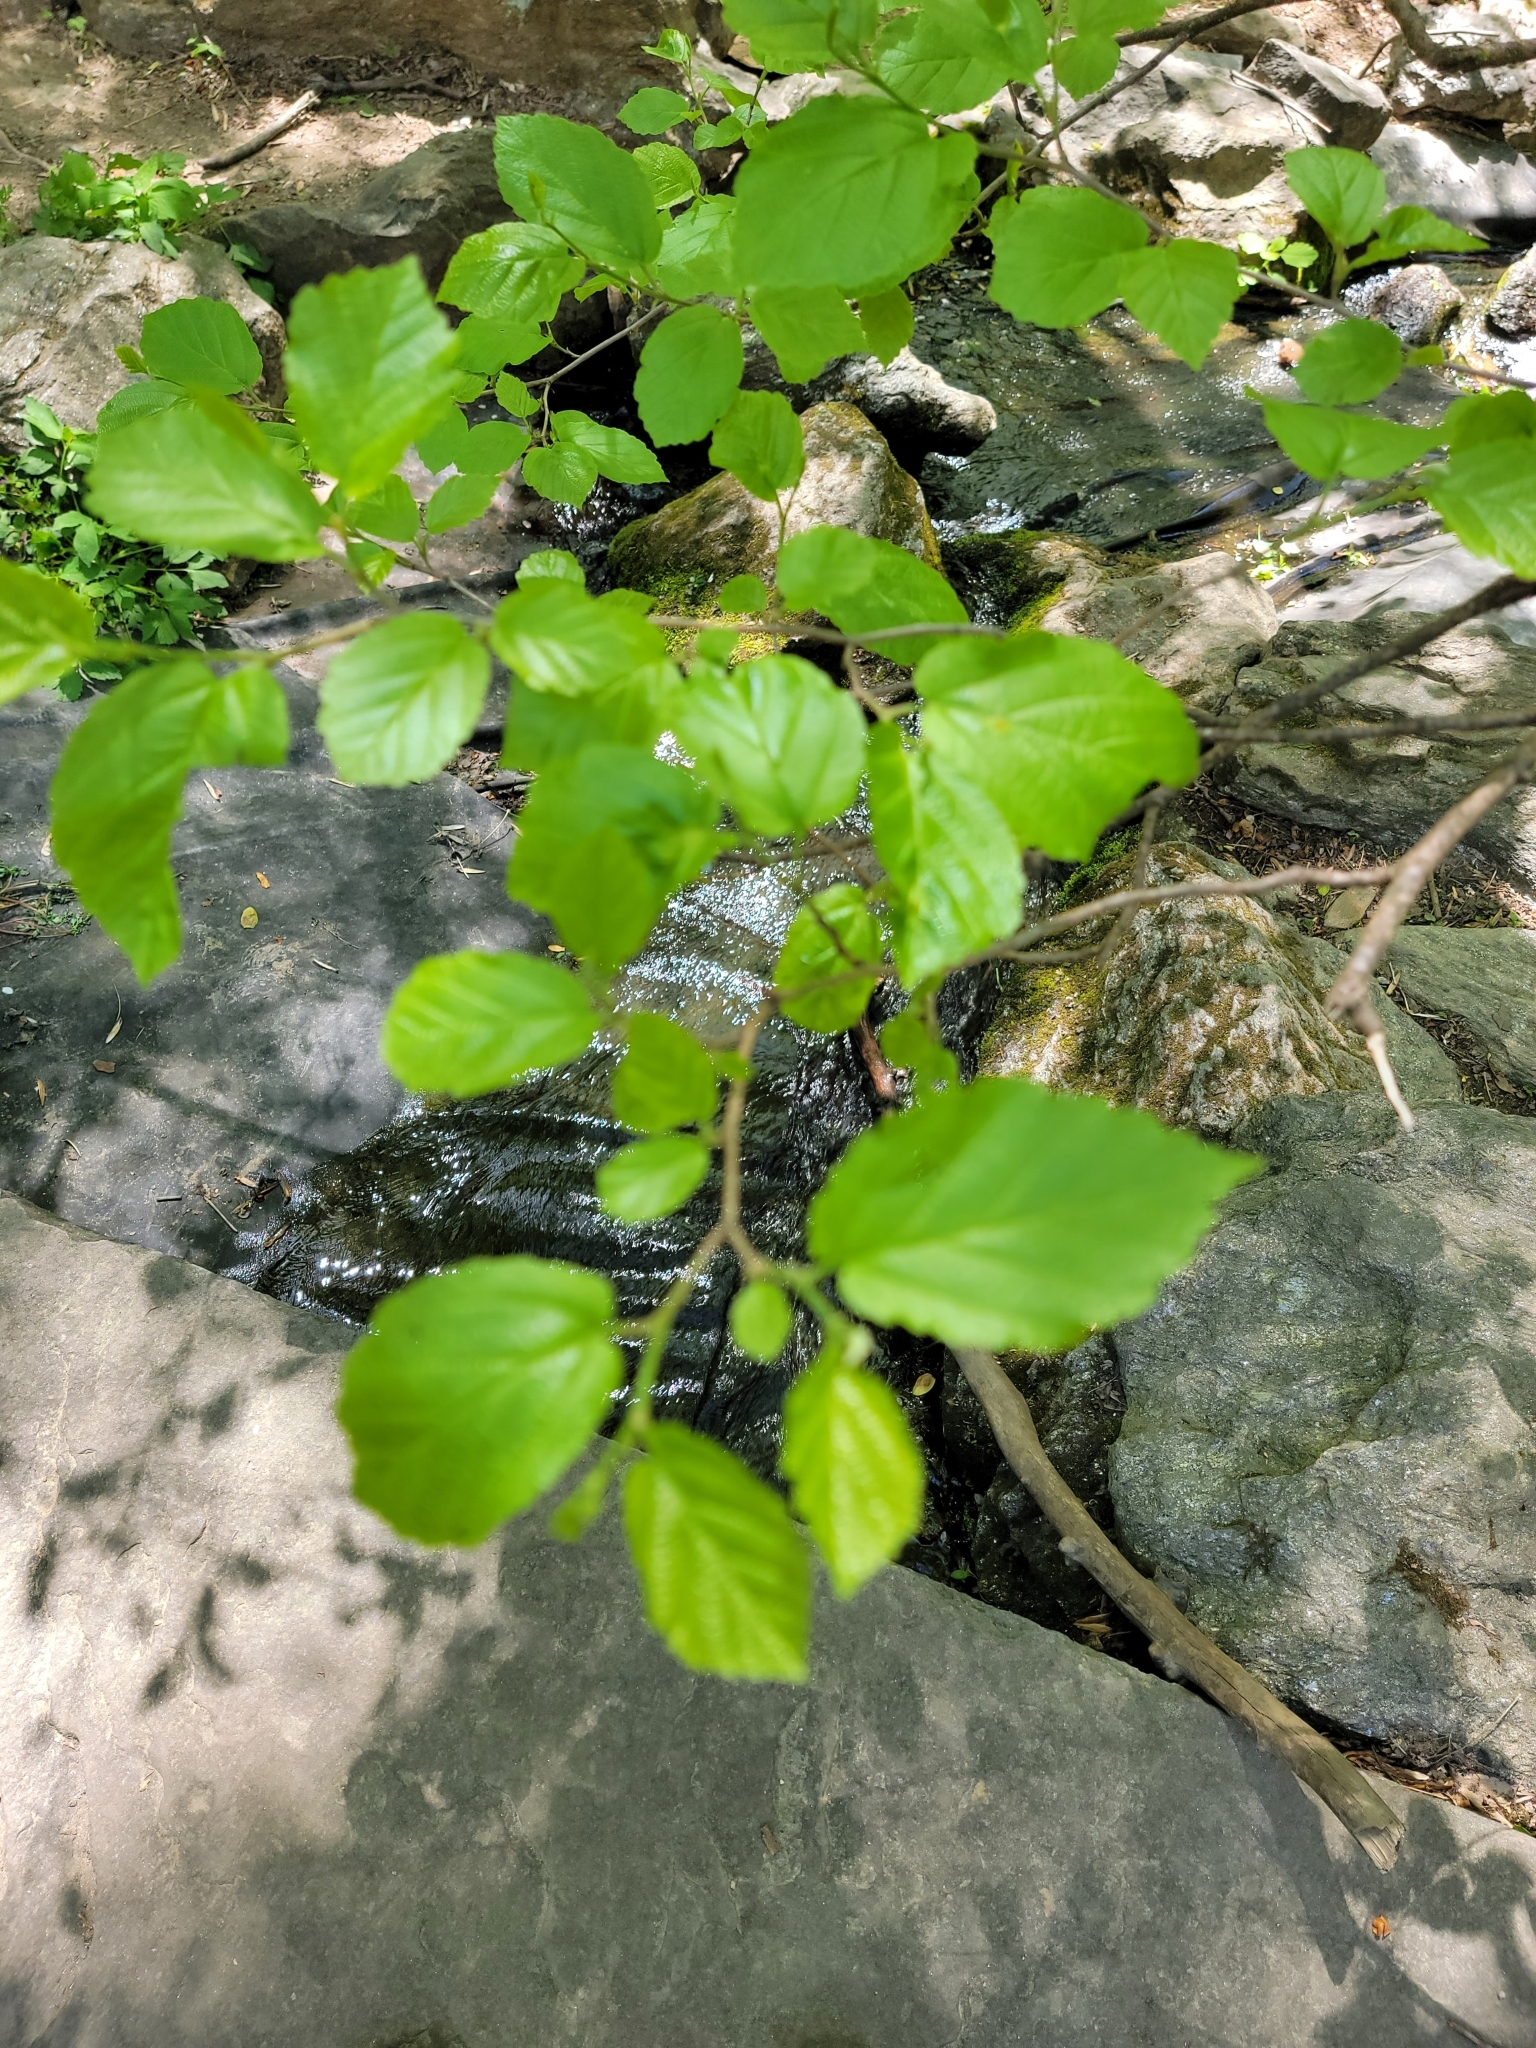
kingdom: Plantae
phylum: Tracheophyta
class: Magnoliopsida
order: Saxifragales
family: Hamamelidaceae
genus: Hamamelis
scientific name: Hamamelis virginiana
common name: Witch-hazel
